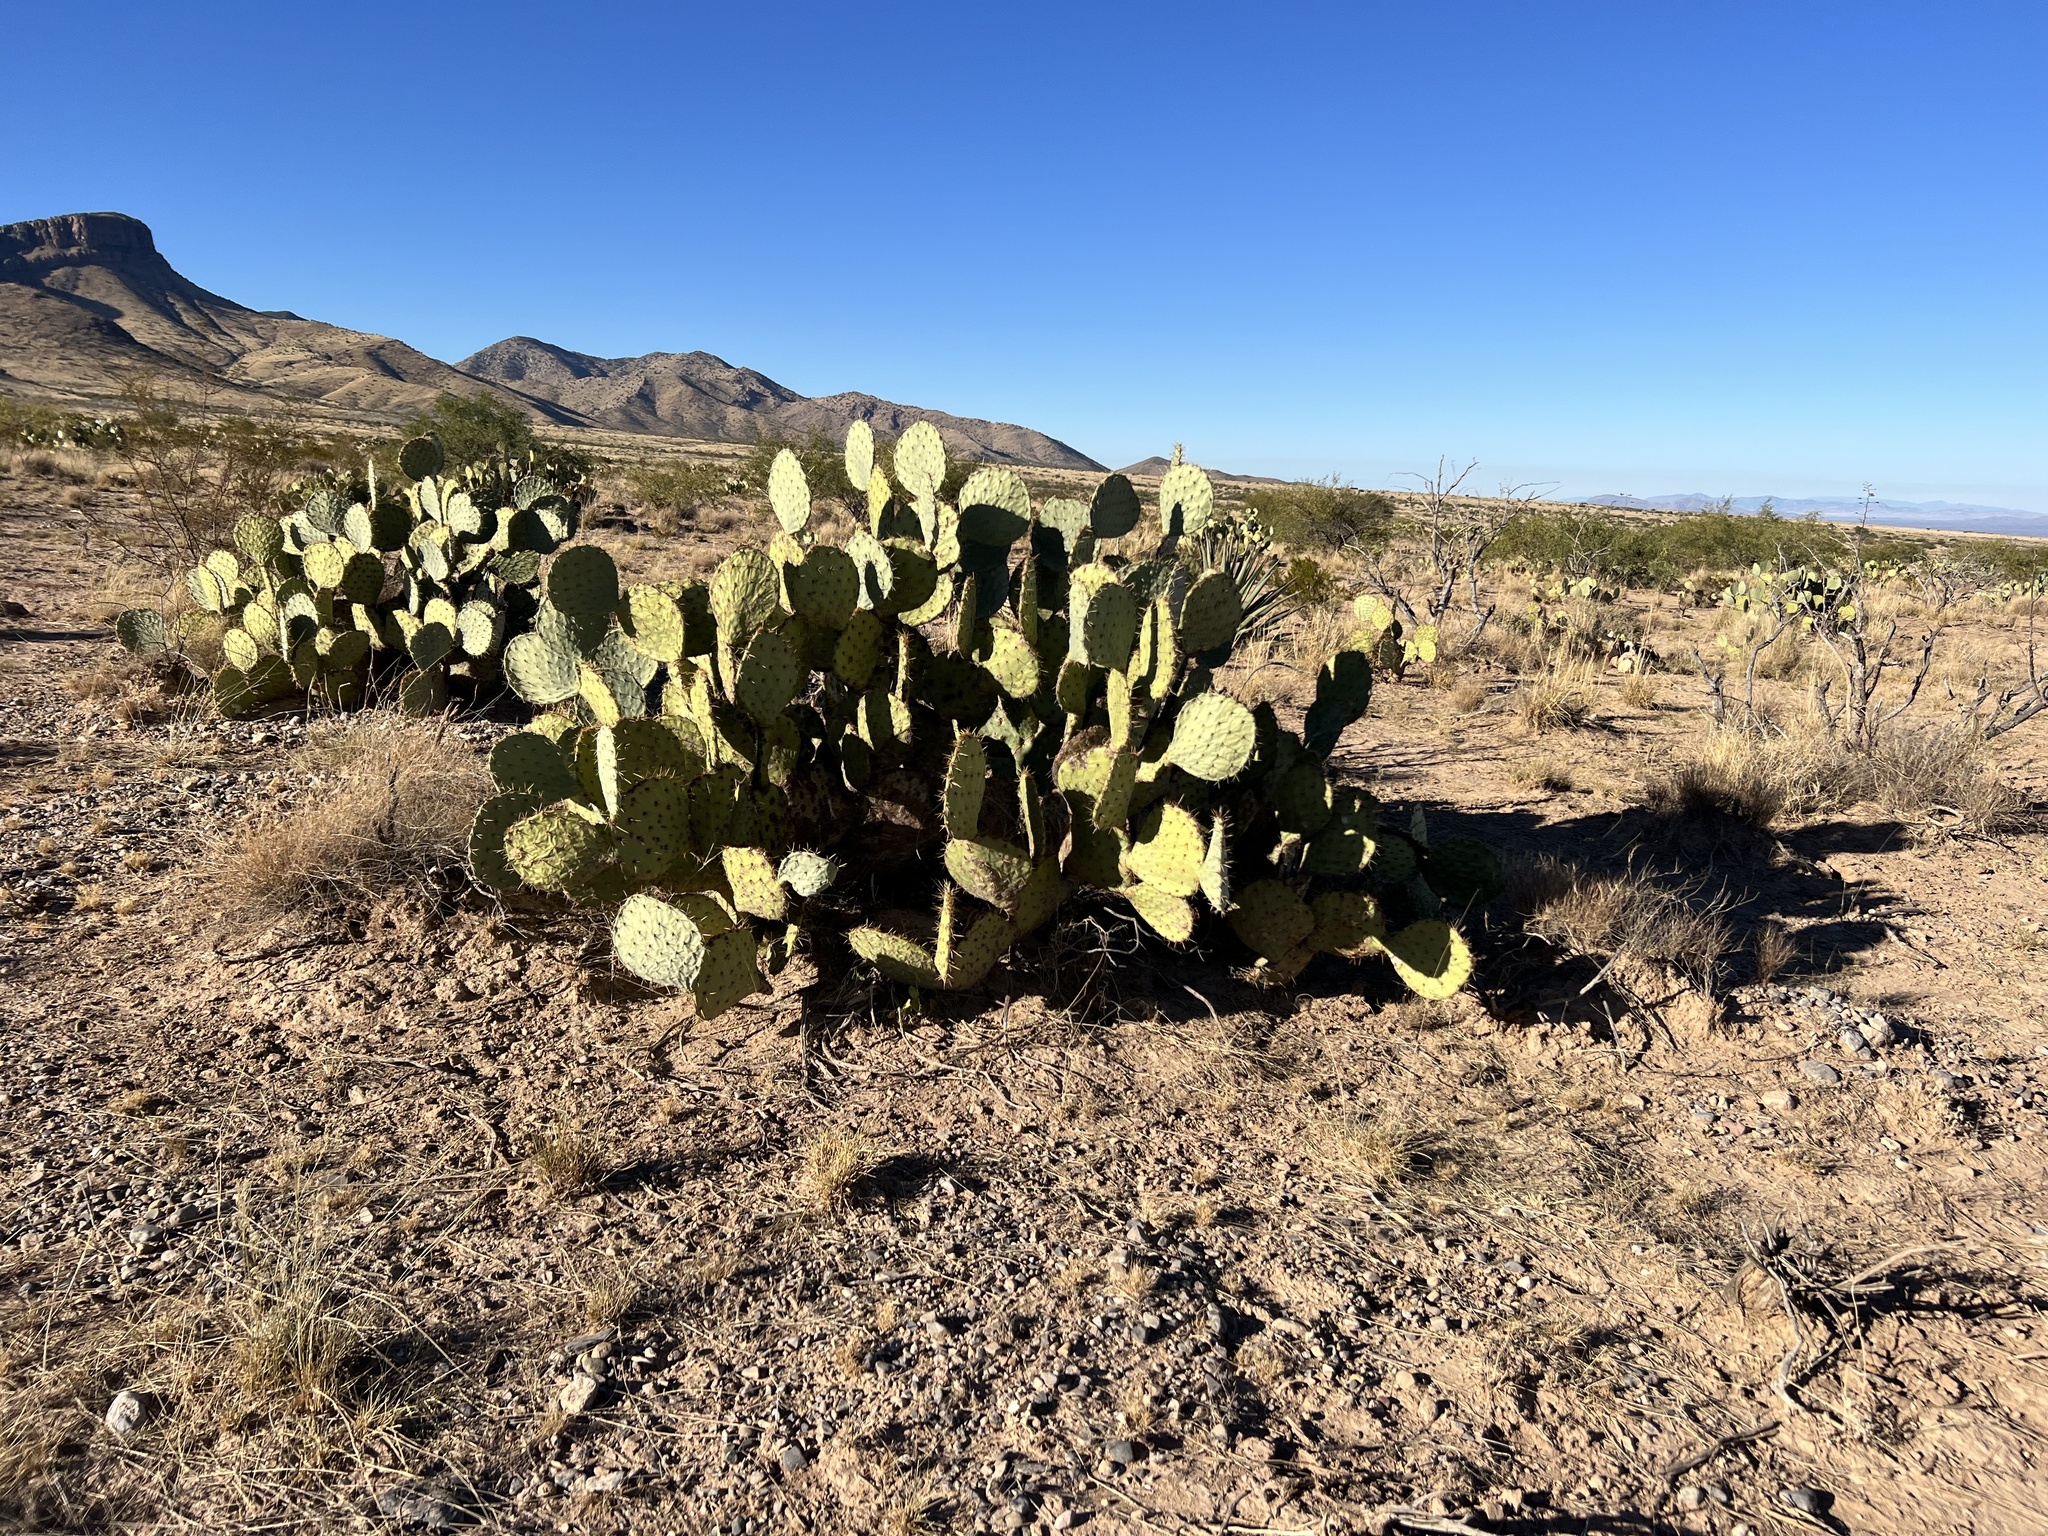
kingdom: Plantae
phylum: Tracheophyta
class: Magnoliopsida
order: Caryophyllales
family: Cactaceae
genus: Opuntia
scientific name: Opuntia engelmannii
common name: Cactus-apple
